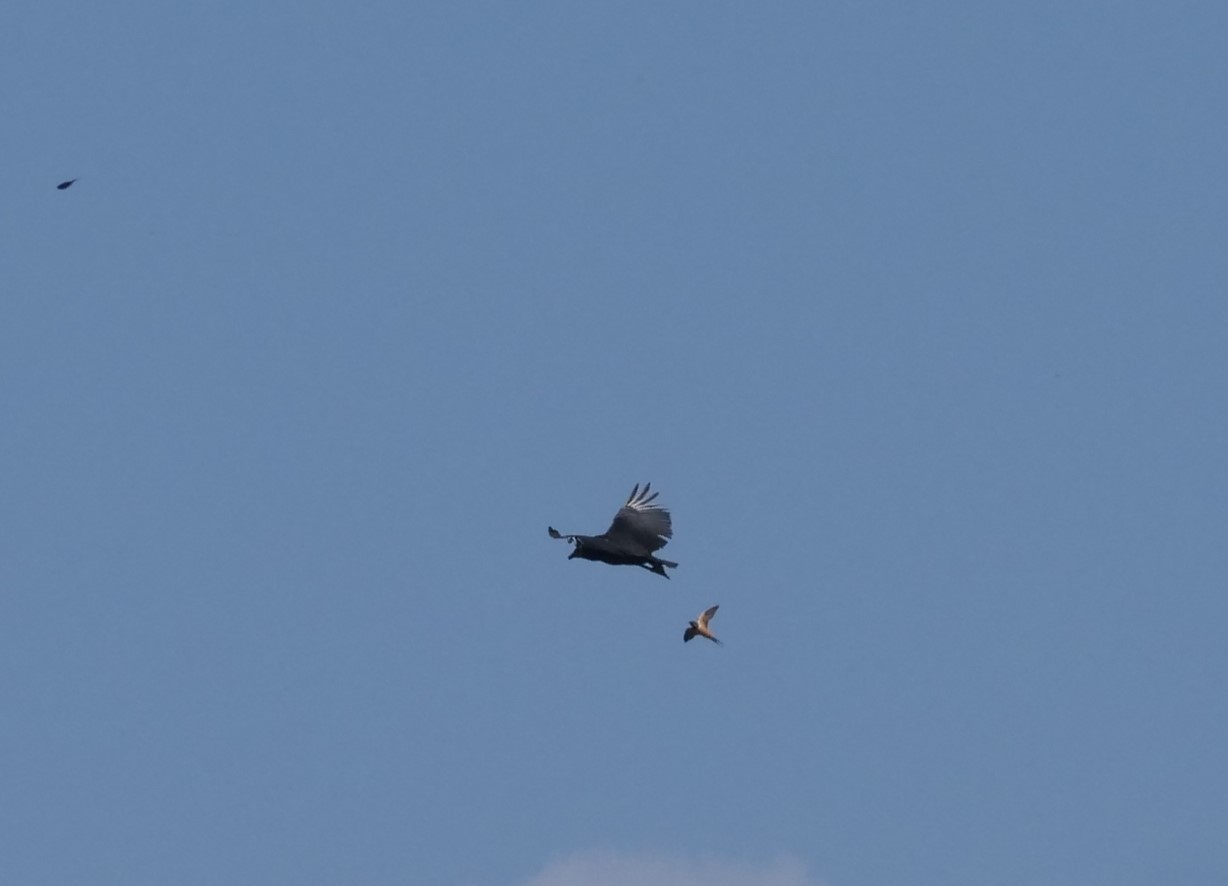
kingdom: Animalia
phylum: Chordata
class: Aves
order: Accipitriformes
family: Cathartidae
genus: Coragyps
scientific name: Coragyps atratus
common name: Black vulture
